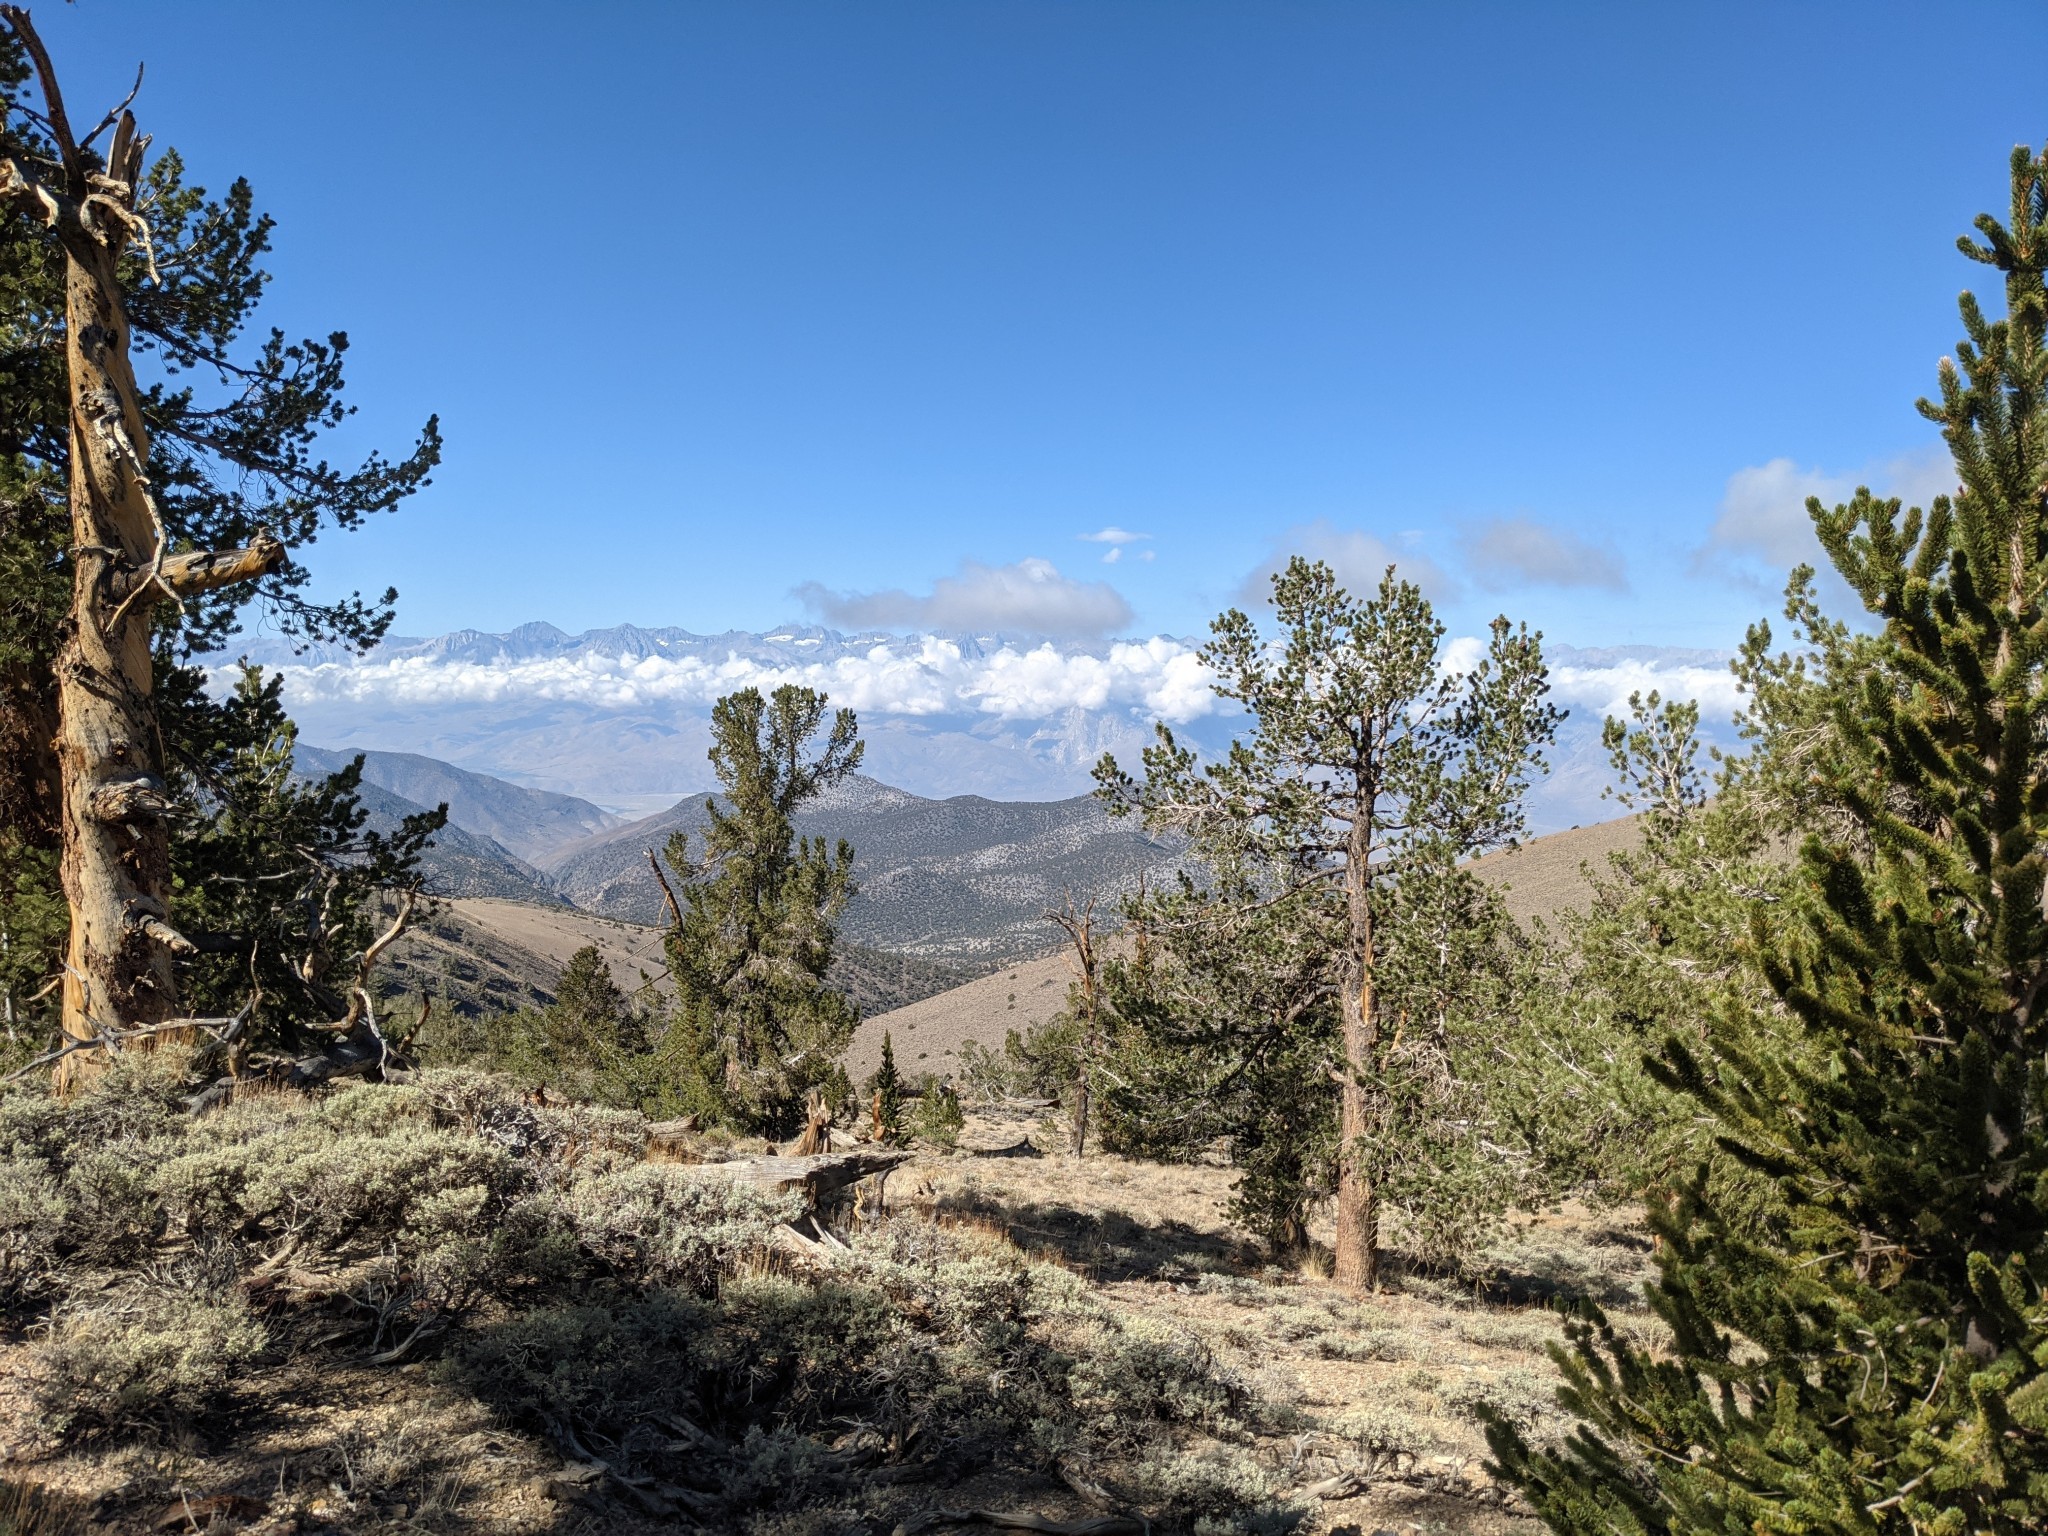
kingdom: Plantae
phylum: Tracheophyta
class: Pinopsida
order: Pinales
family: Pinaceae
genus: Pinus
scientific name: Pinus longaeva
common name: Intermountain bristlecone pine
